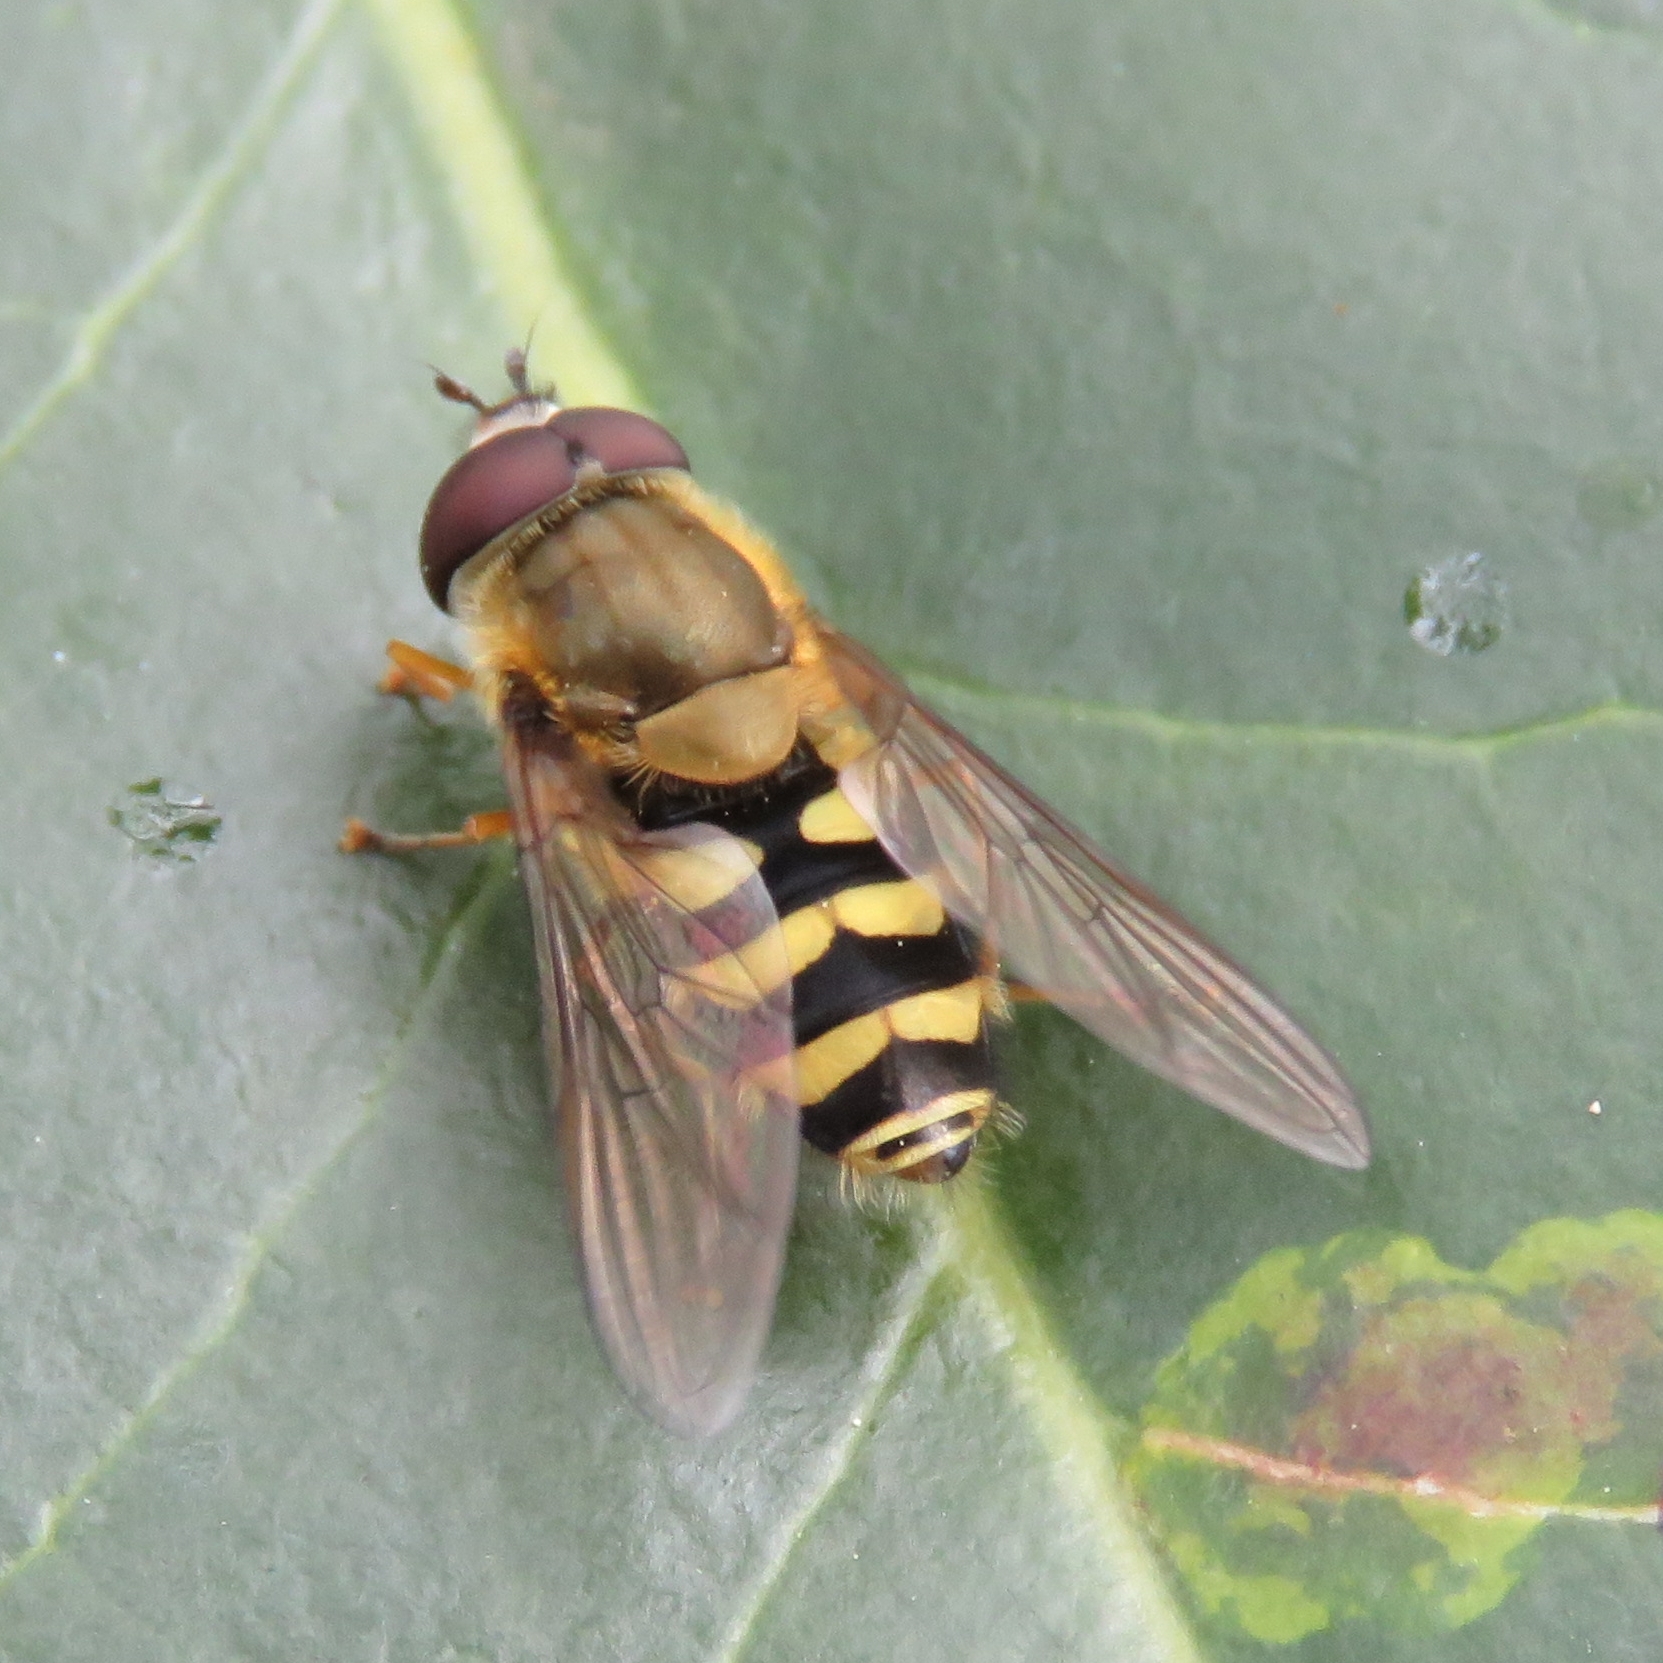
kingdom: Animalia
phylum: Arthropoda
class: Insecta
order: Diptera
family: Syrphidae
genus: Syrphus
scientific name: Syrphus
